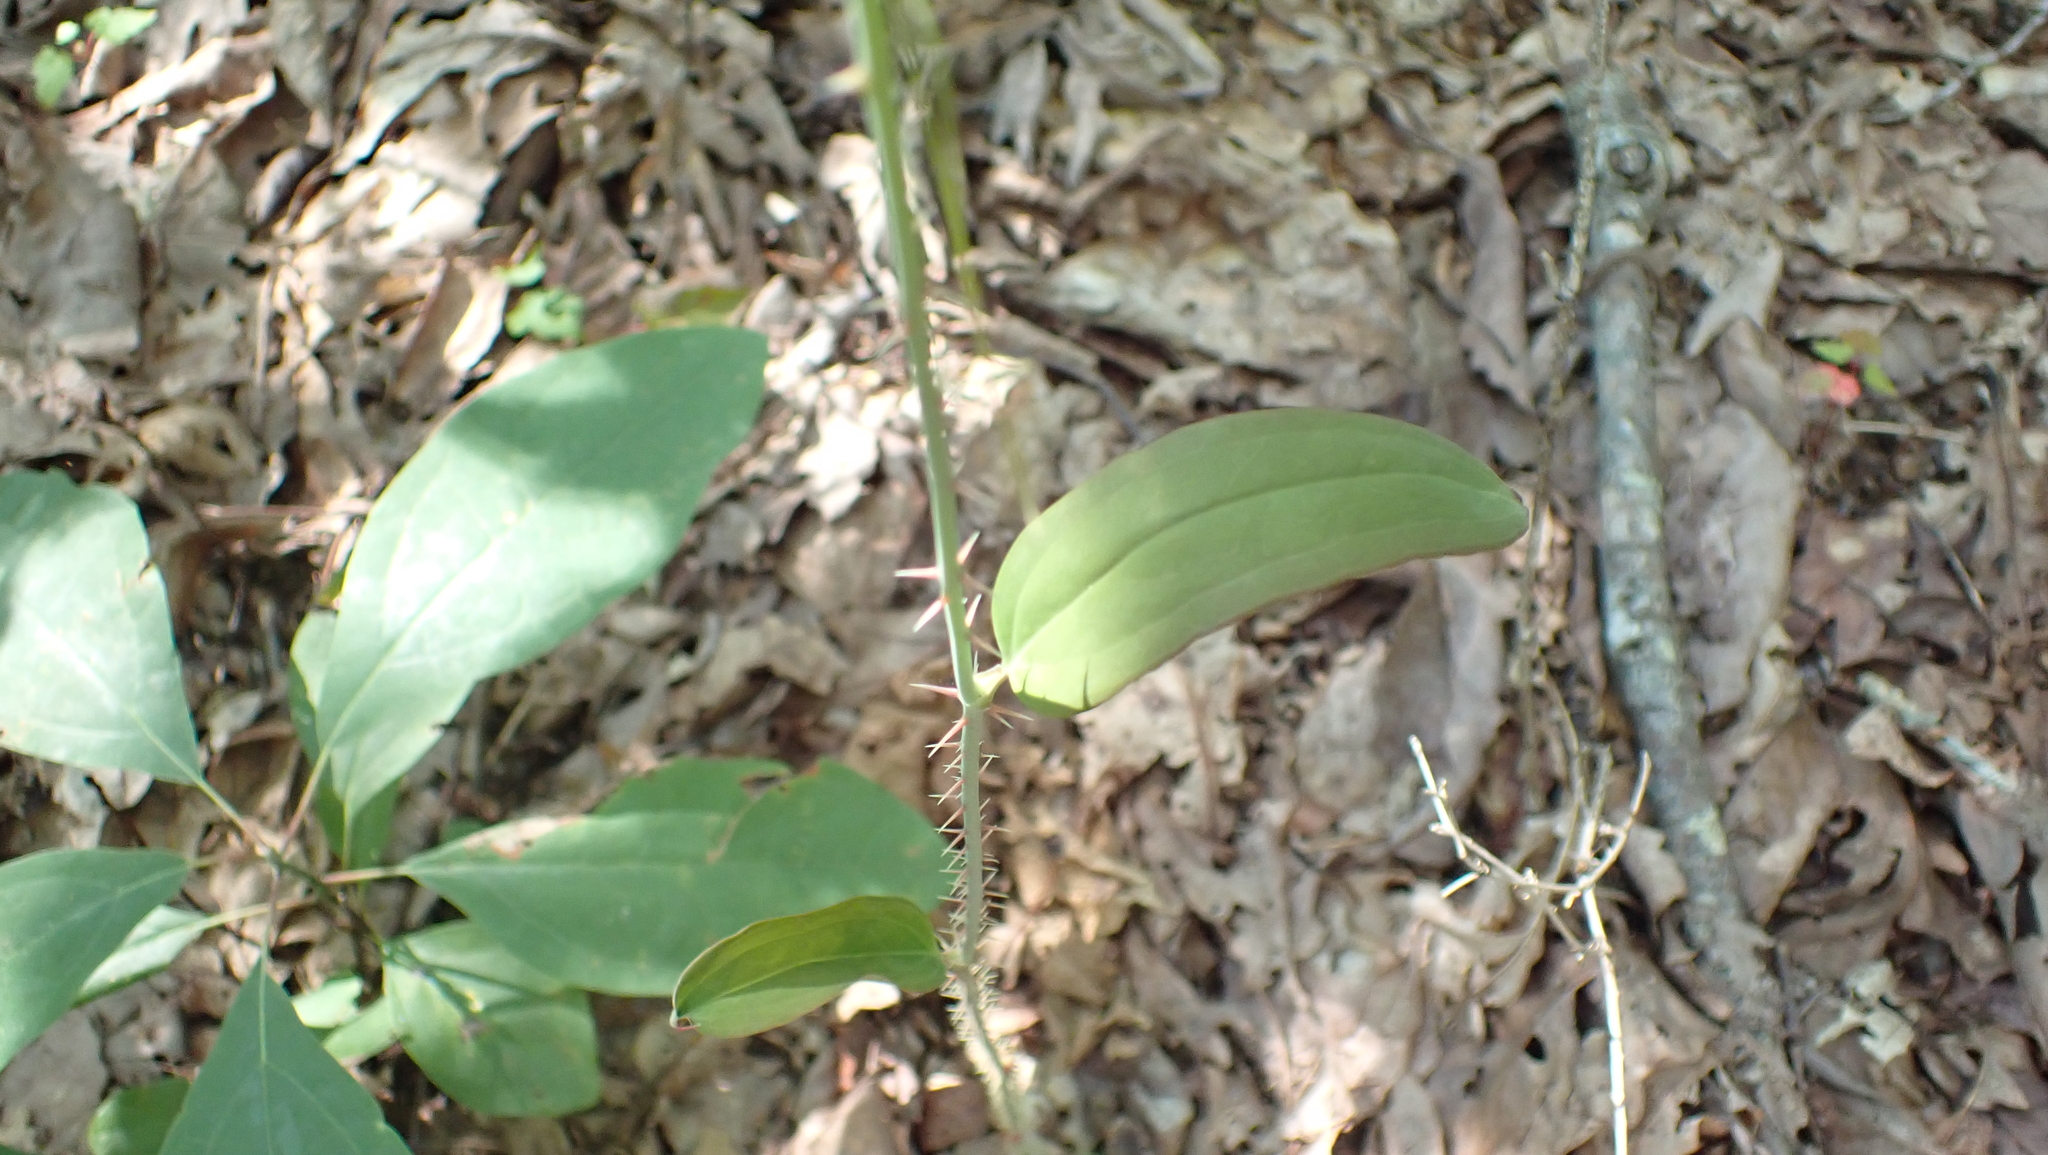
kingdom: Plantae
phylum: Tracheophyta
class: Liliopsida
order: Liliales
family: Smilacaceae
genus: Smilax
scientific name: Smilax glauca
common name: Cat greenbrier
